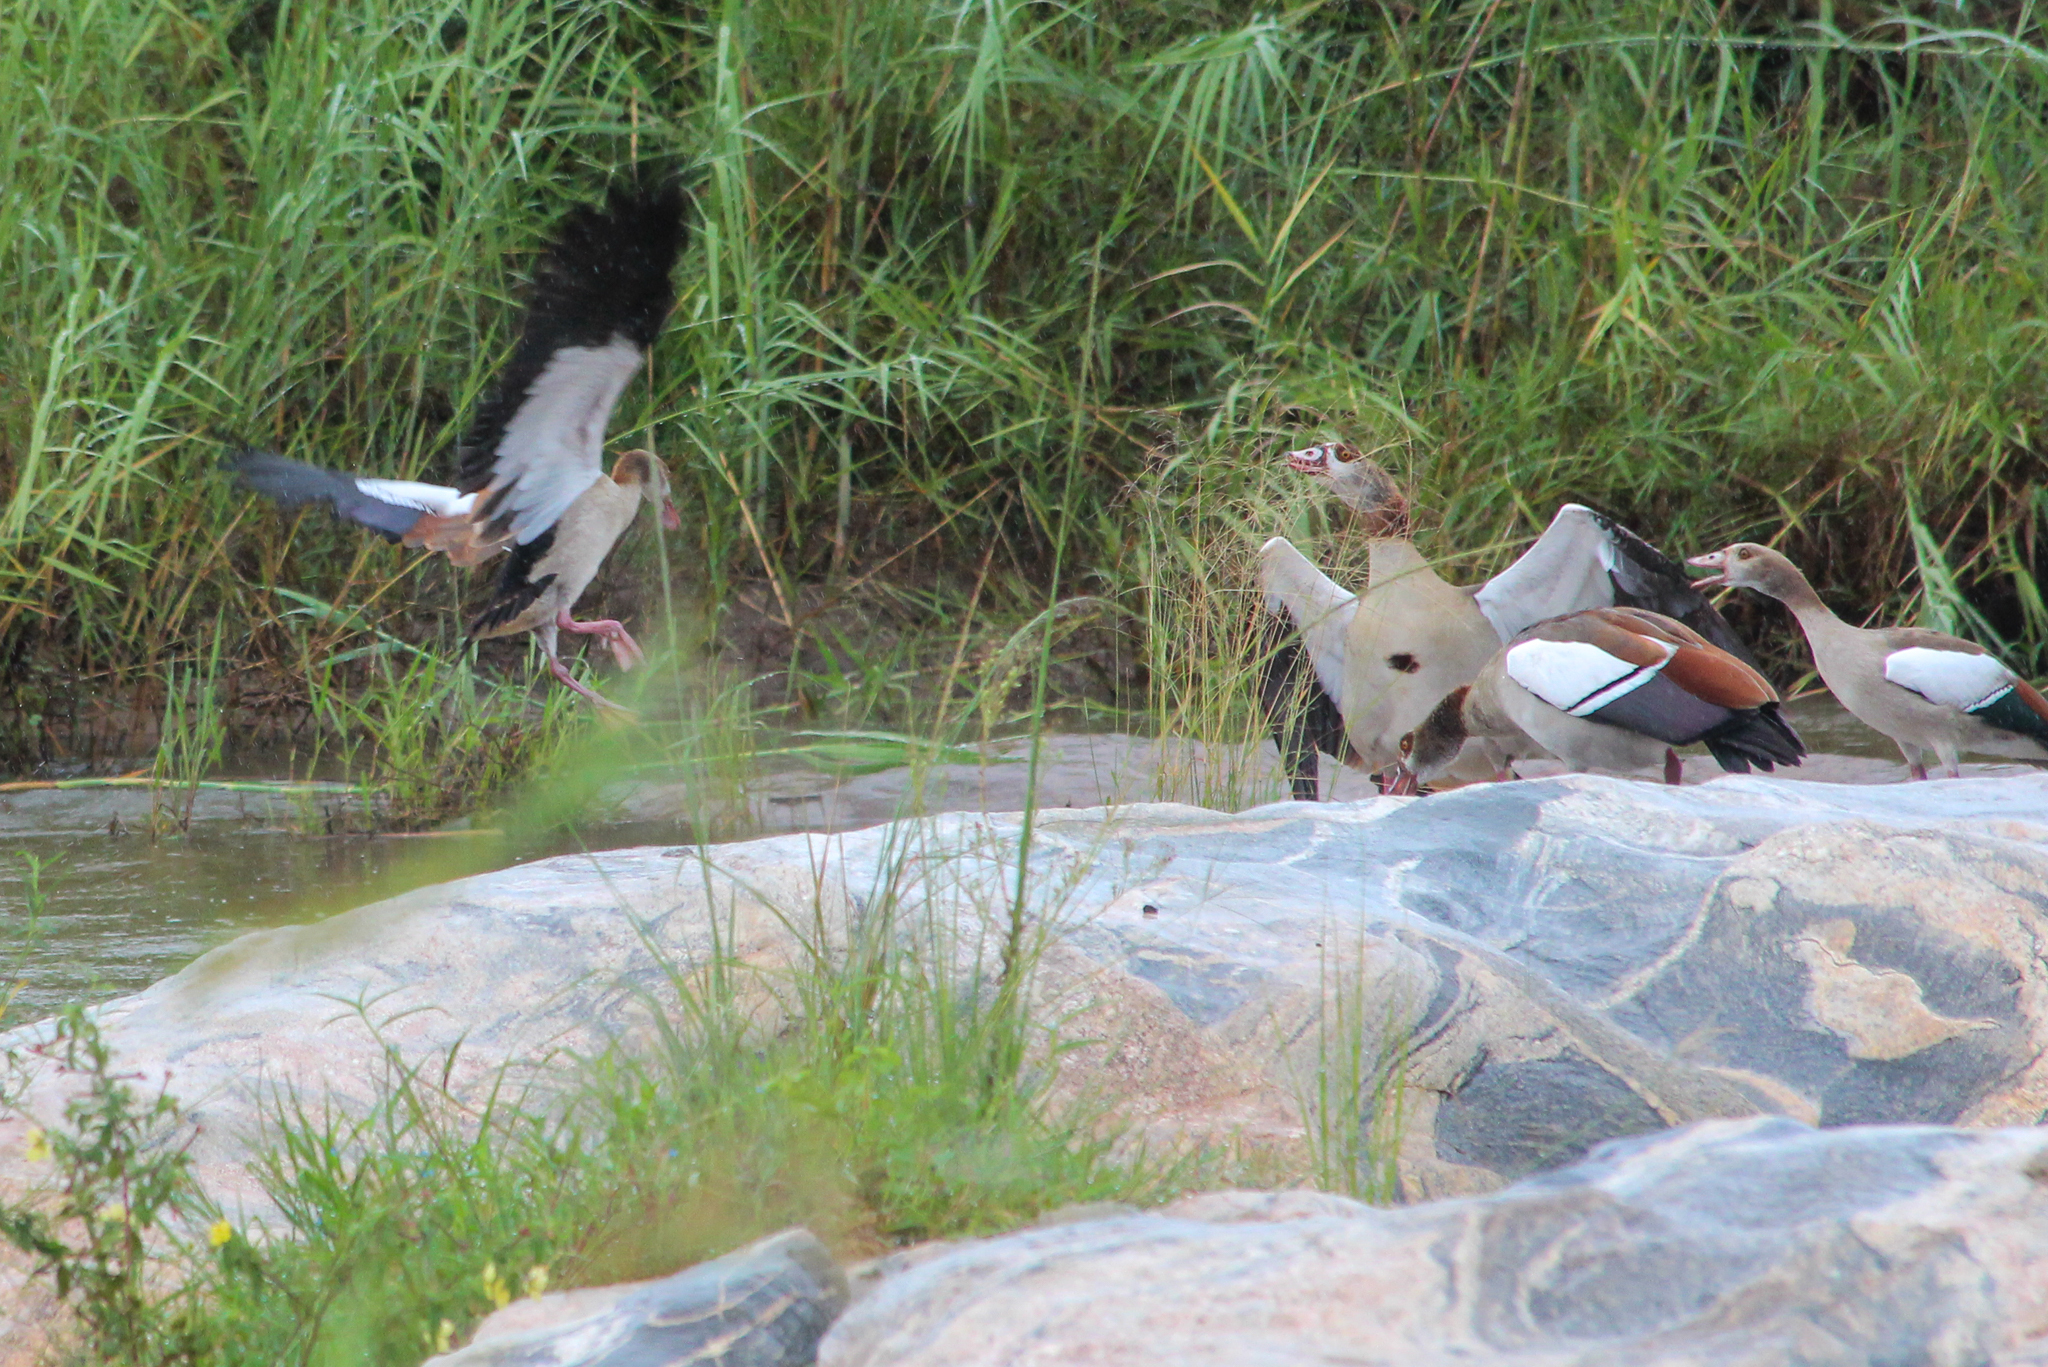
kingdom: Animalia
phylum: Chordata
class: Aves
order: Anseriformes
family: Anatidae
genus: Alopochen
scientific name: Alopochen aegyptiaca
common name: Egyptian goose
